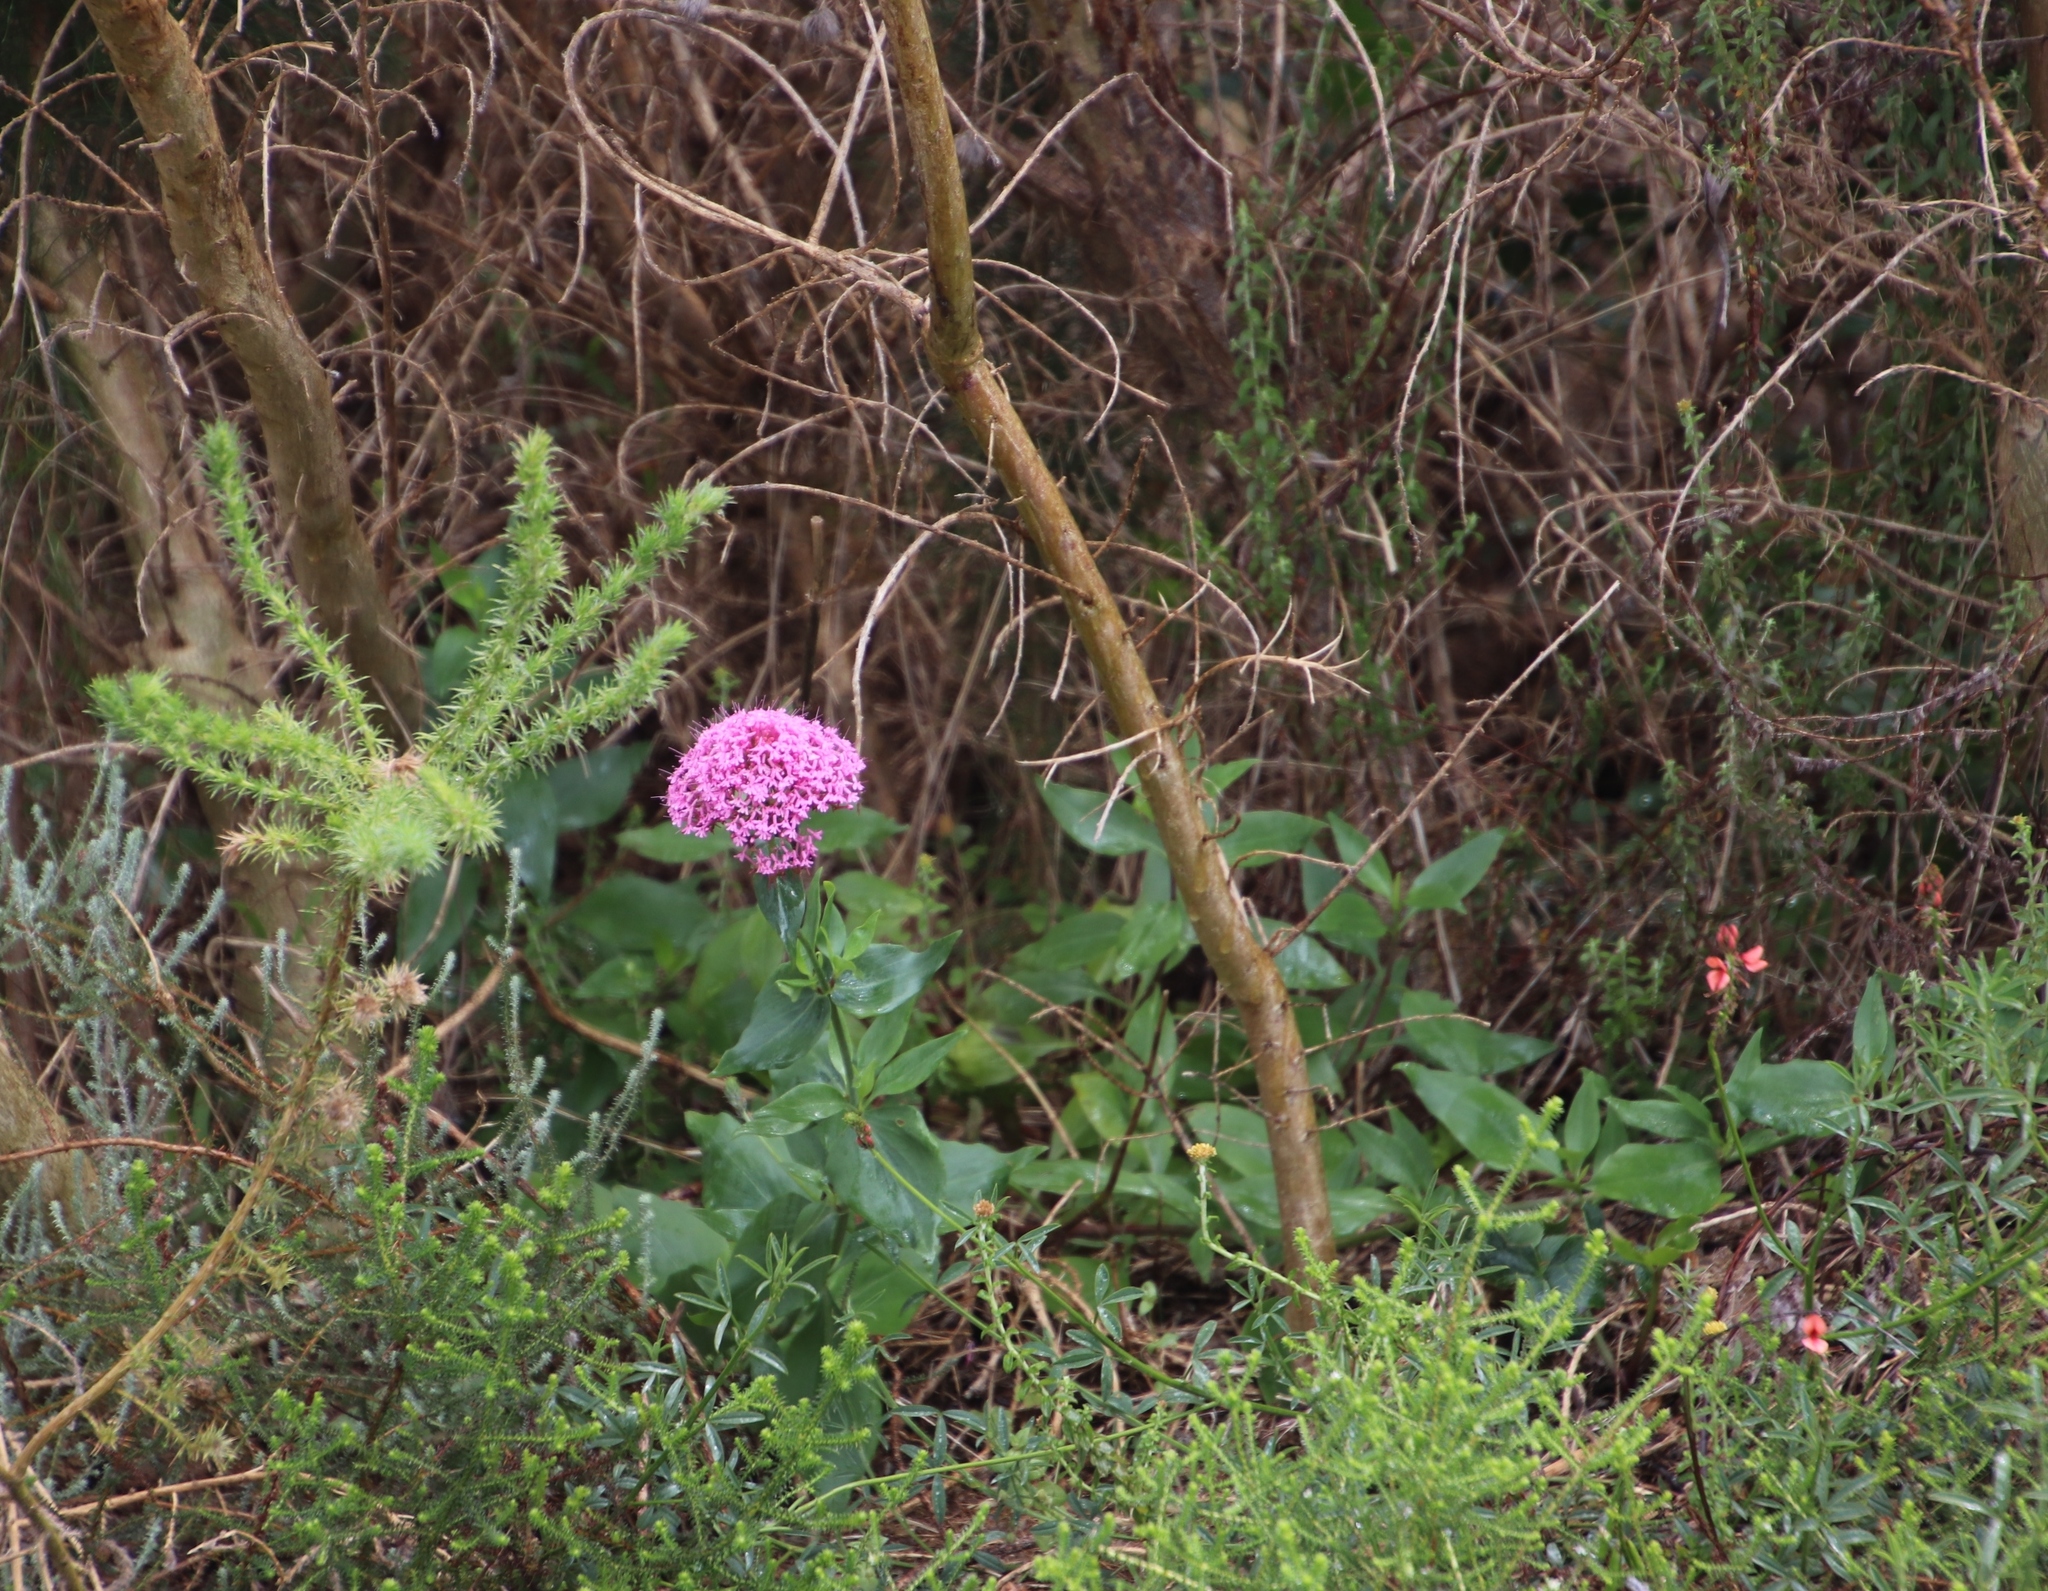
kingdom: Plantae
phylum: Tracheophyta
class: Magnoliopsida
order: Dipsacales
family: Caprifoliaceae
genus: Centranthus
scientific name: Centranthus ruber
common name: Red valerian
